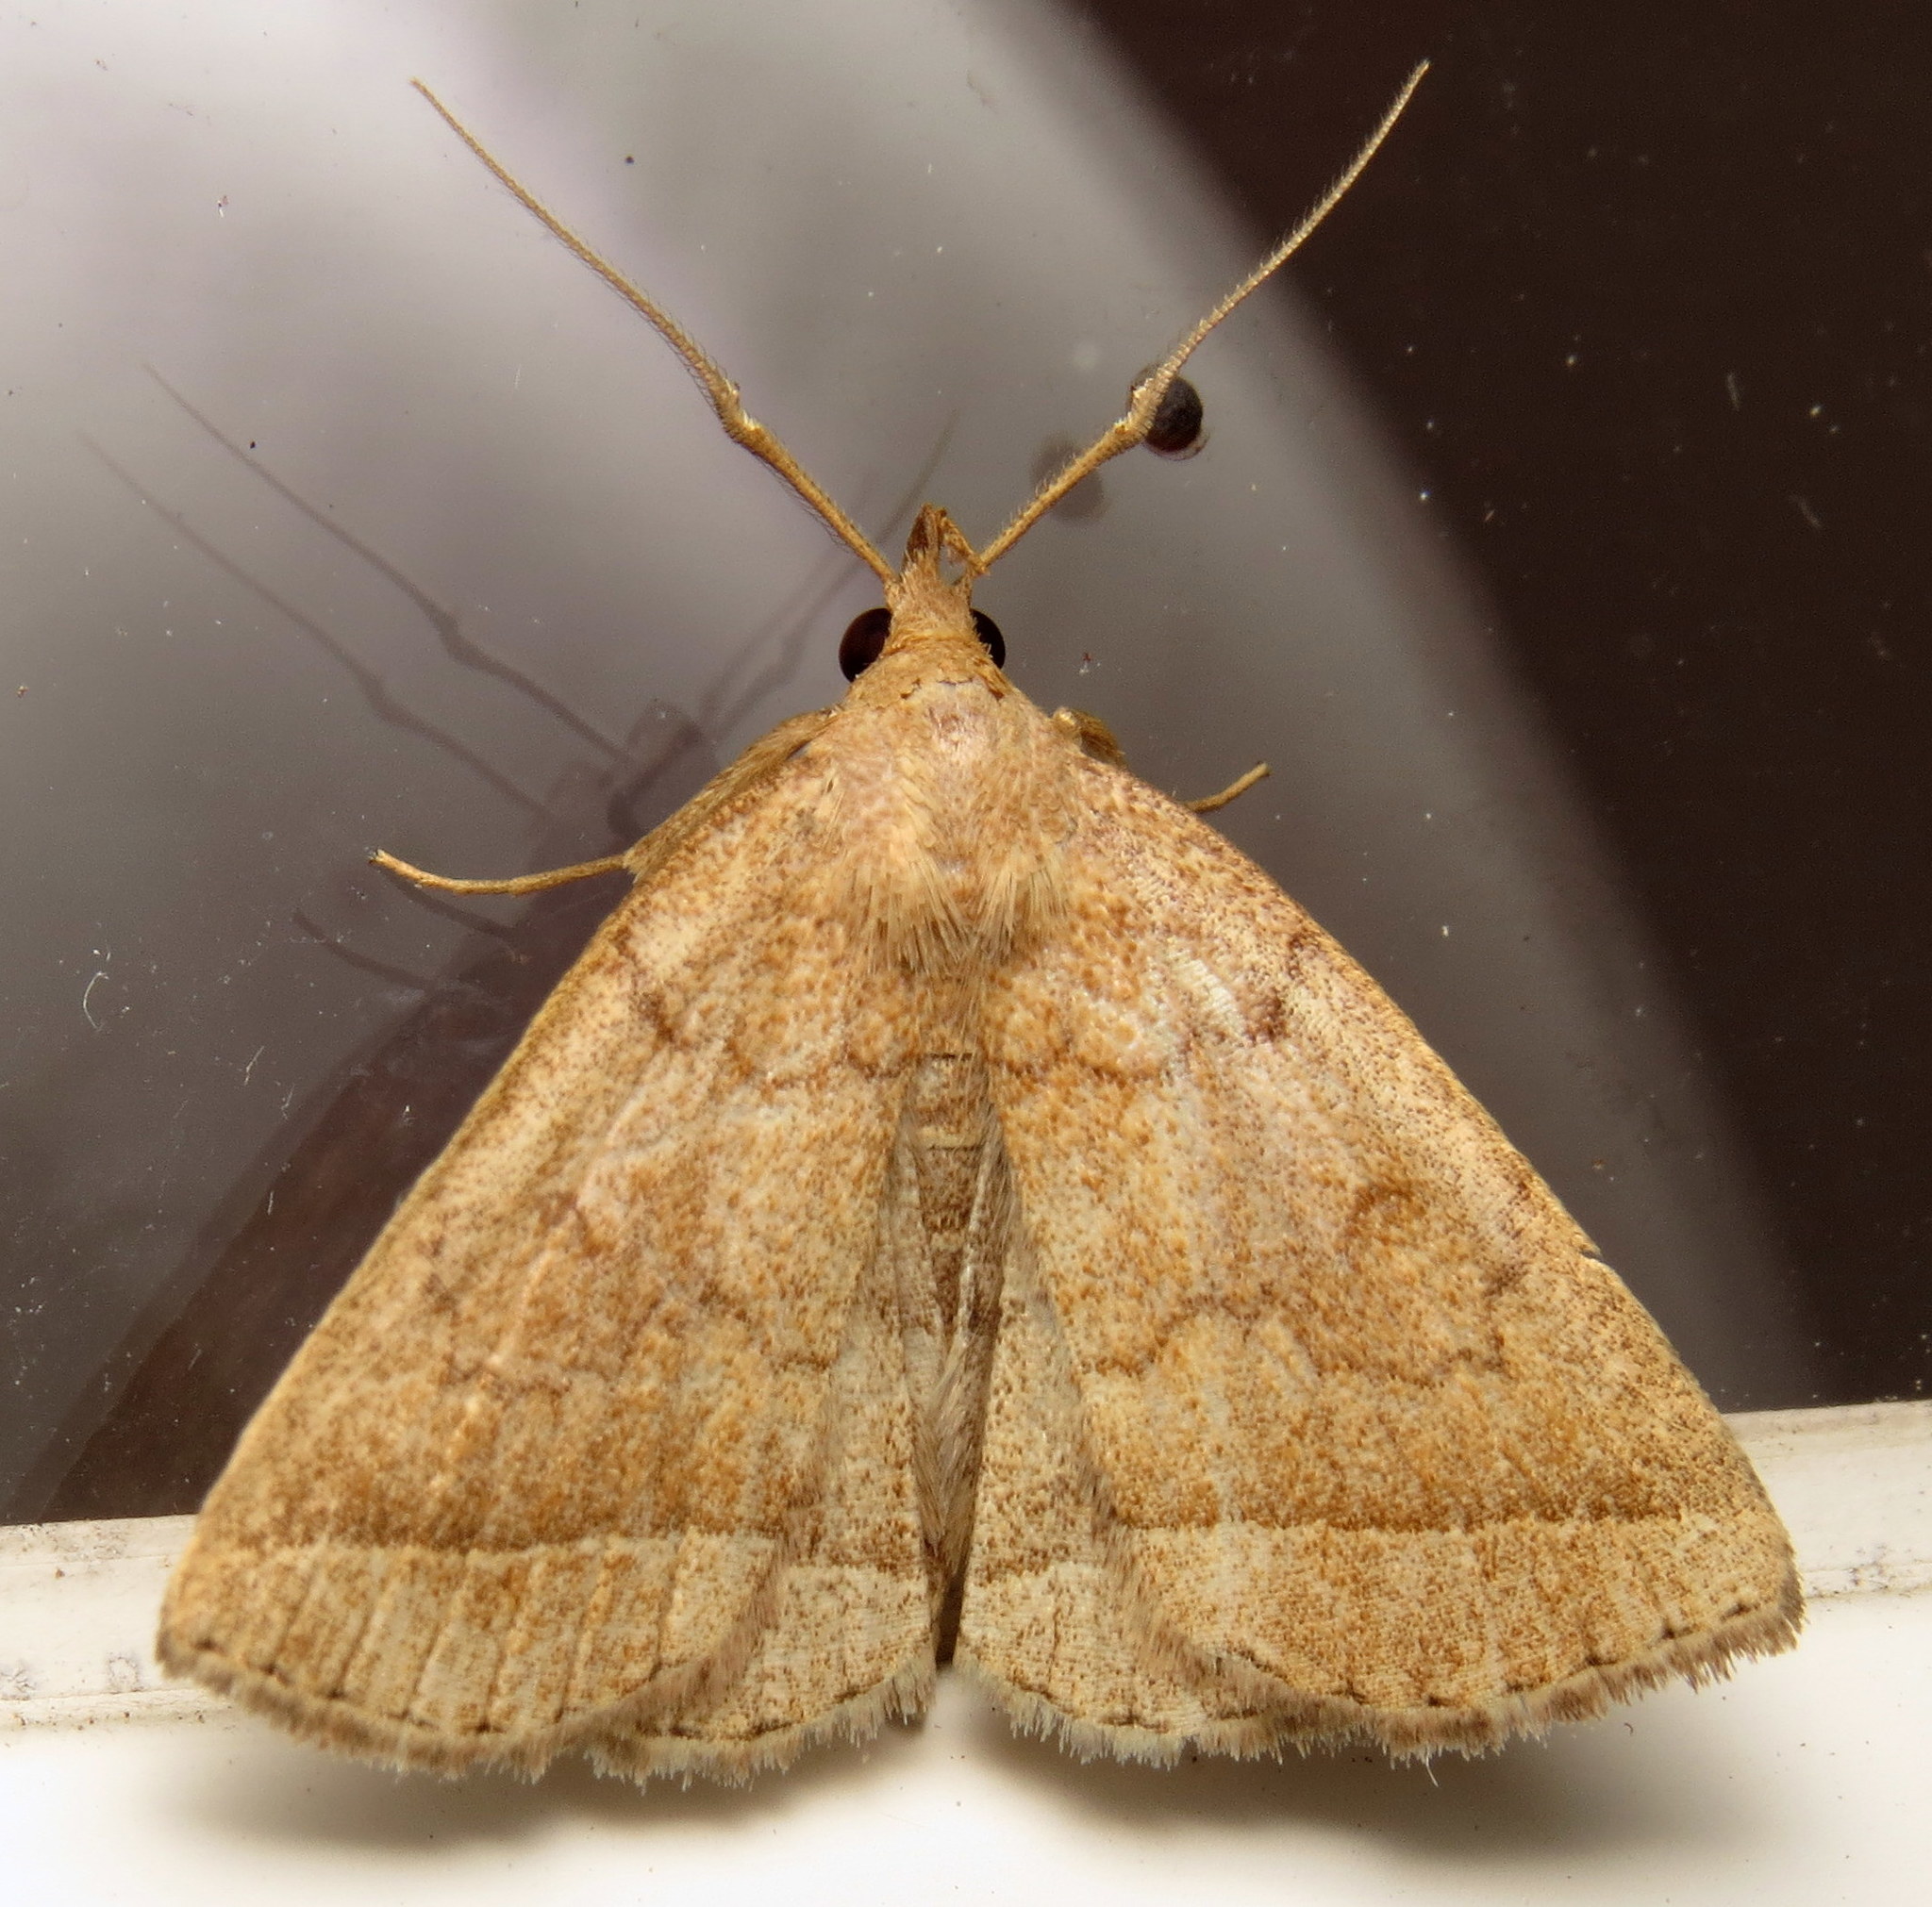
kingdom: Animalia
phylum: Arthropoda
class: Insecta
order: Lepidoptera
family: Erebidae
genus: Zanclognatha
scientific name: Zanclognatha jacchusalis
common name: Yellowish zanclognatha
